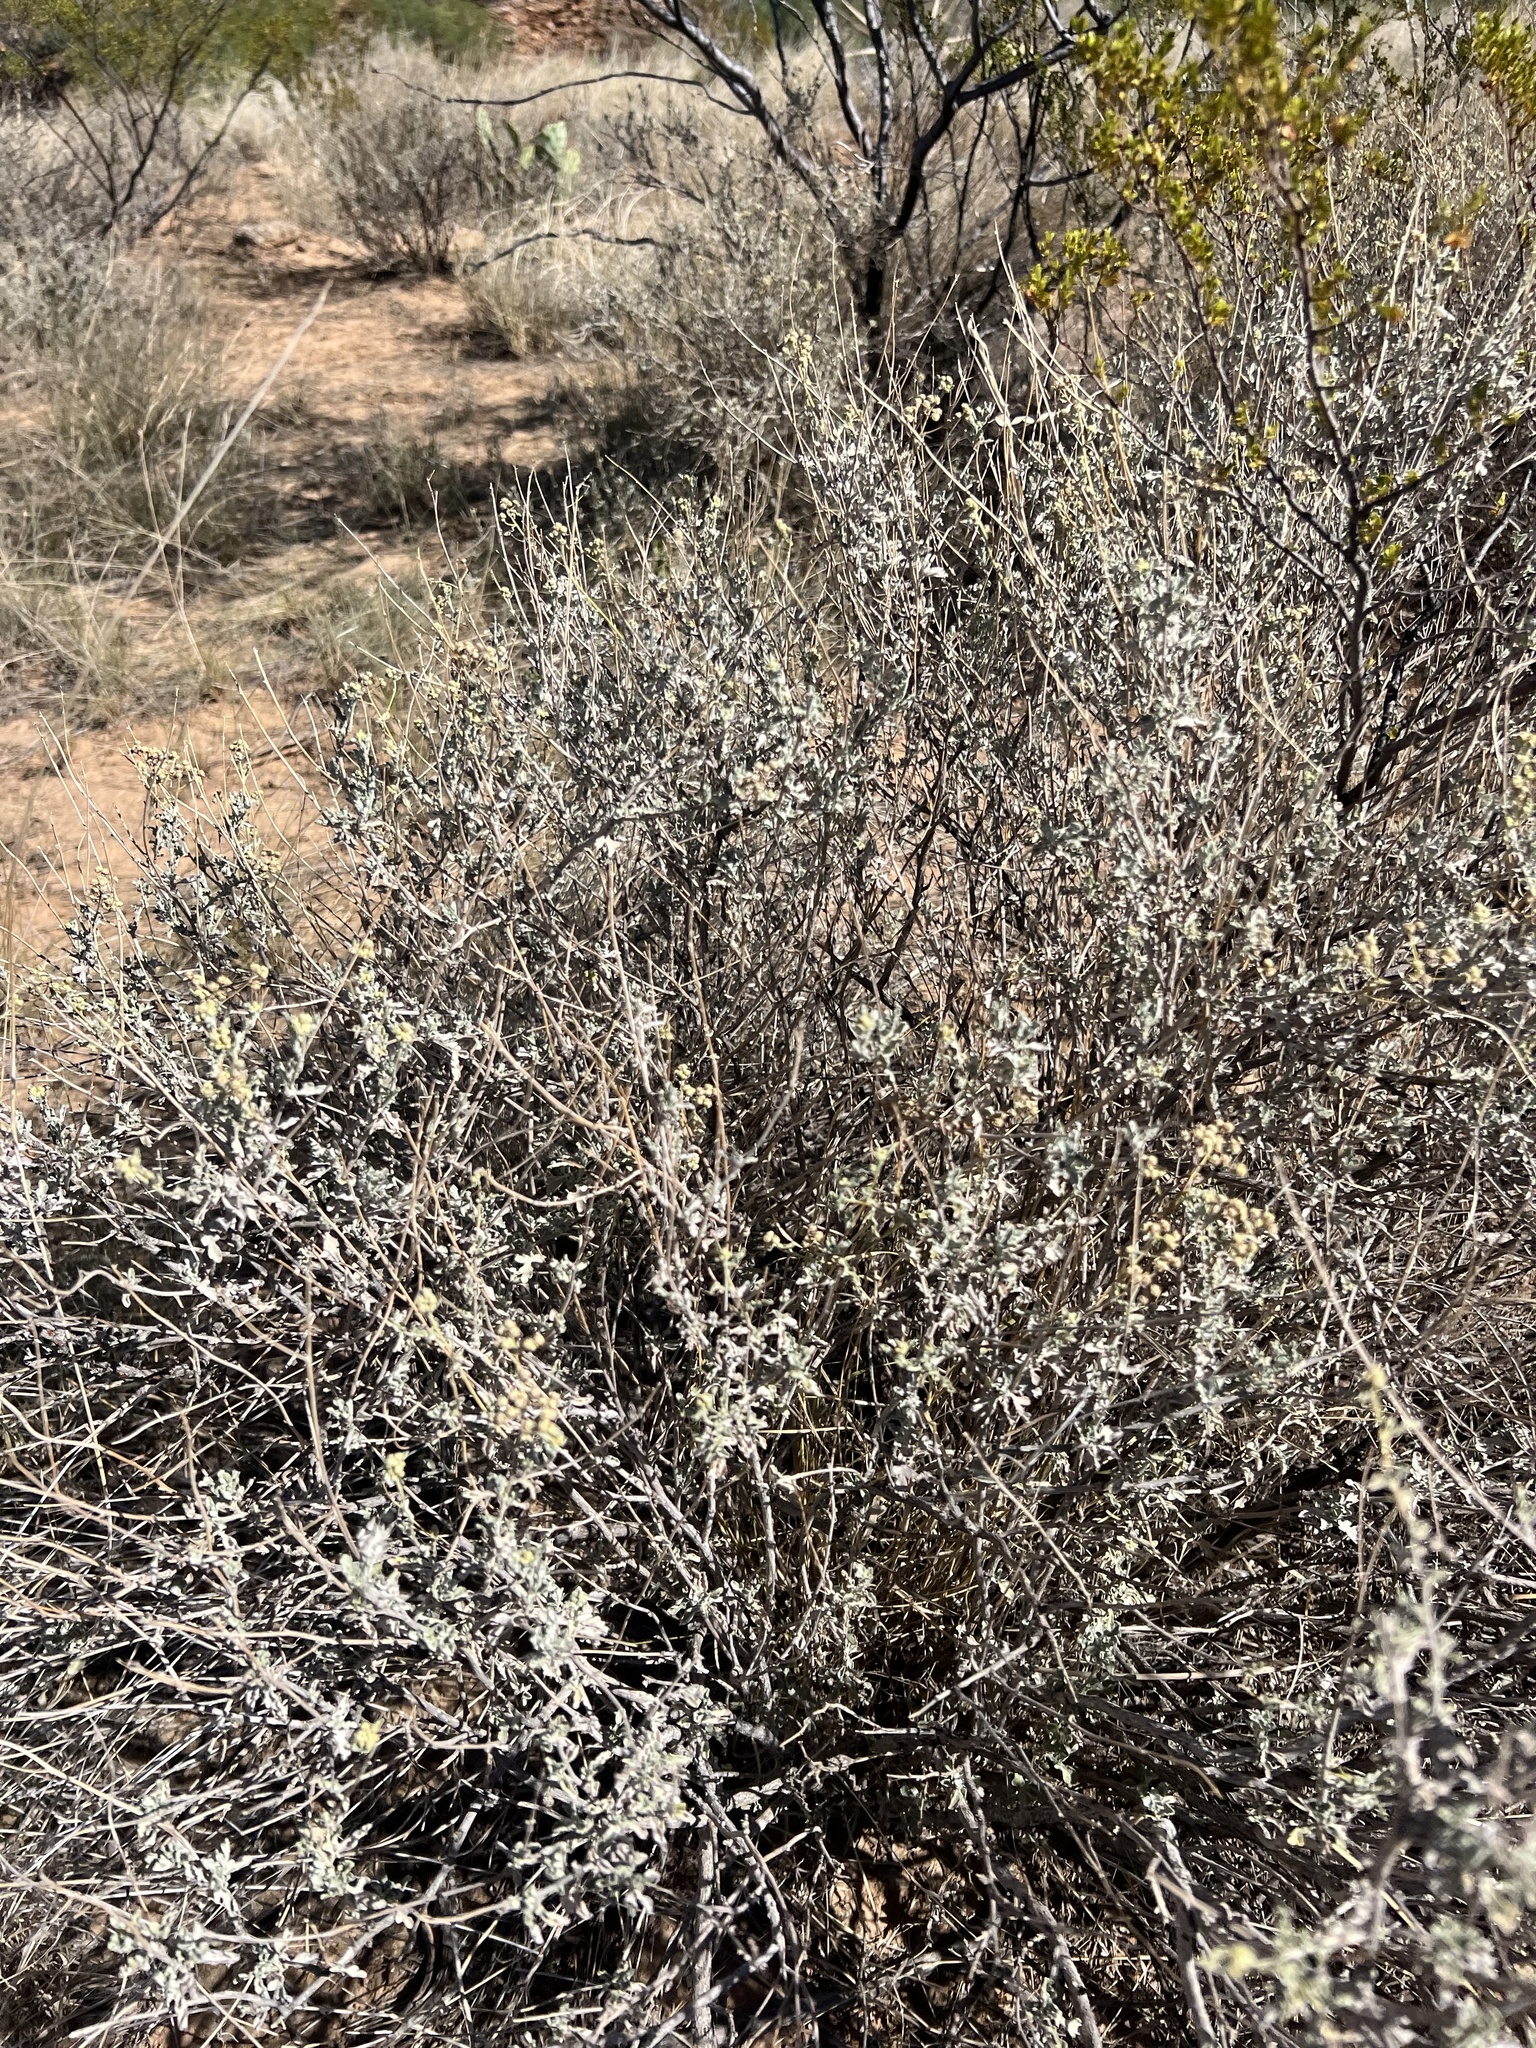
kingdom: Plantae
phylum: Tracheophyta
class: Magnoliopsida
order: Asterales
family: Asteraceae
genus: Parthenium
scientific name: Parthenium incanum
